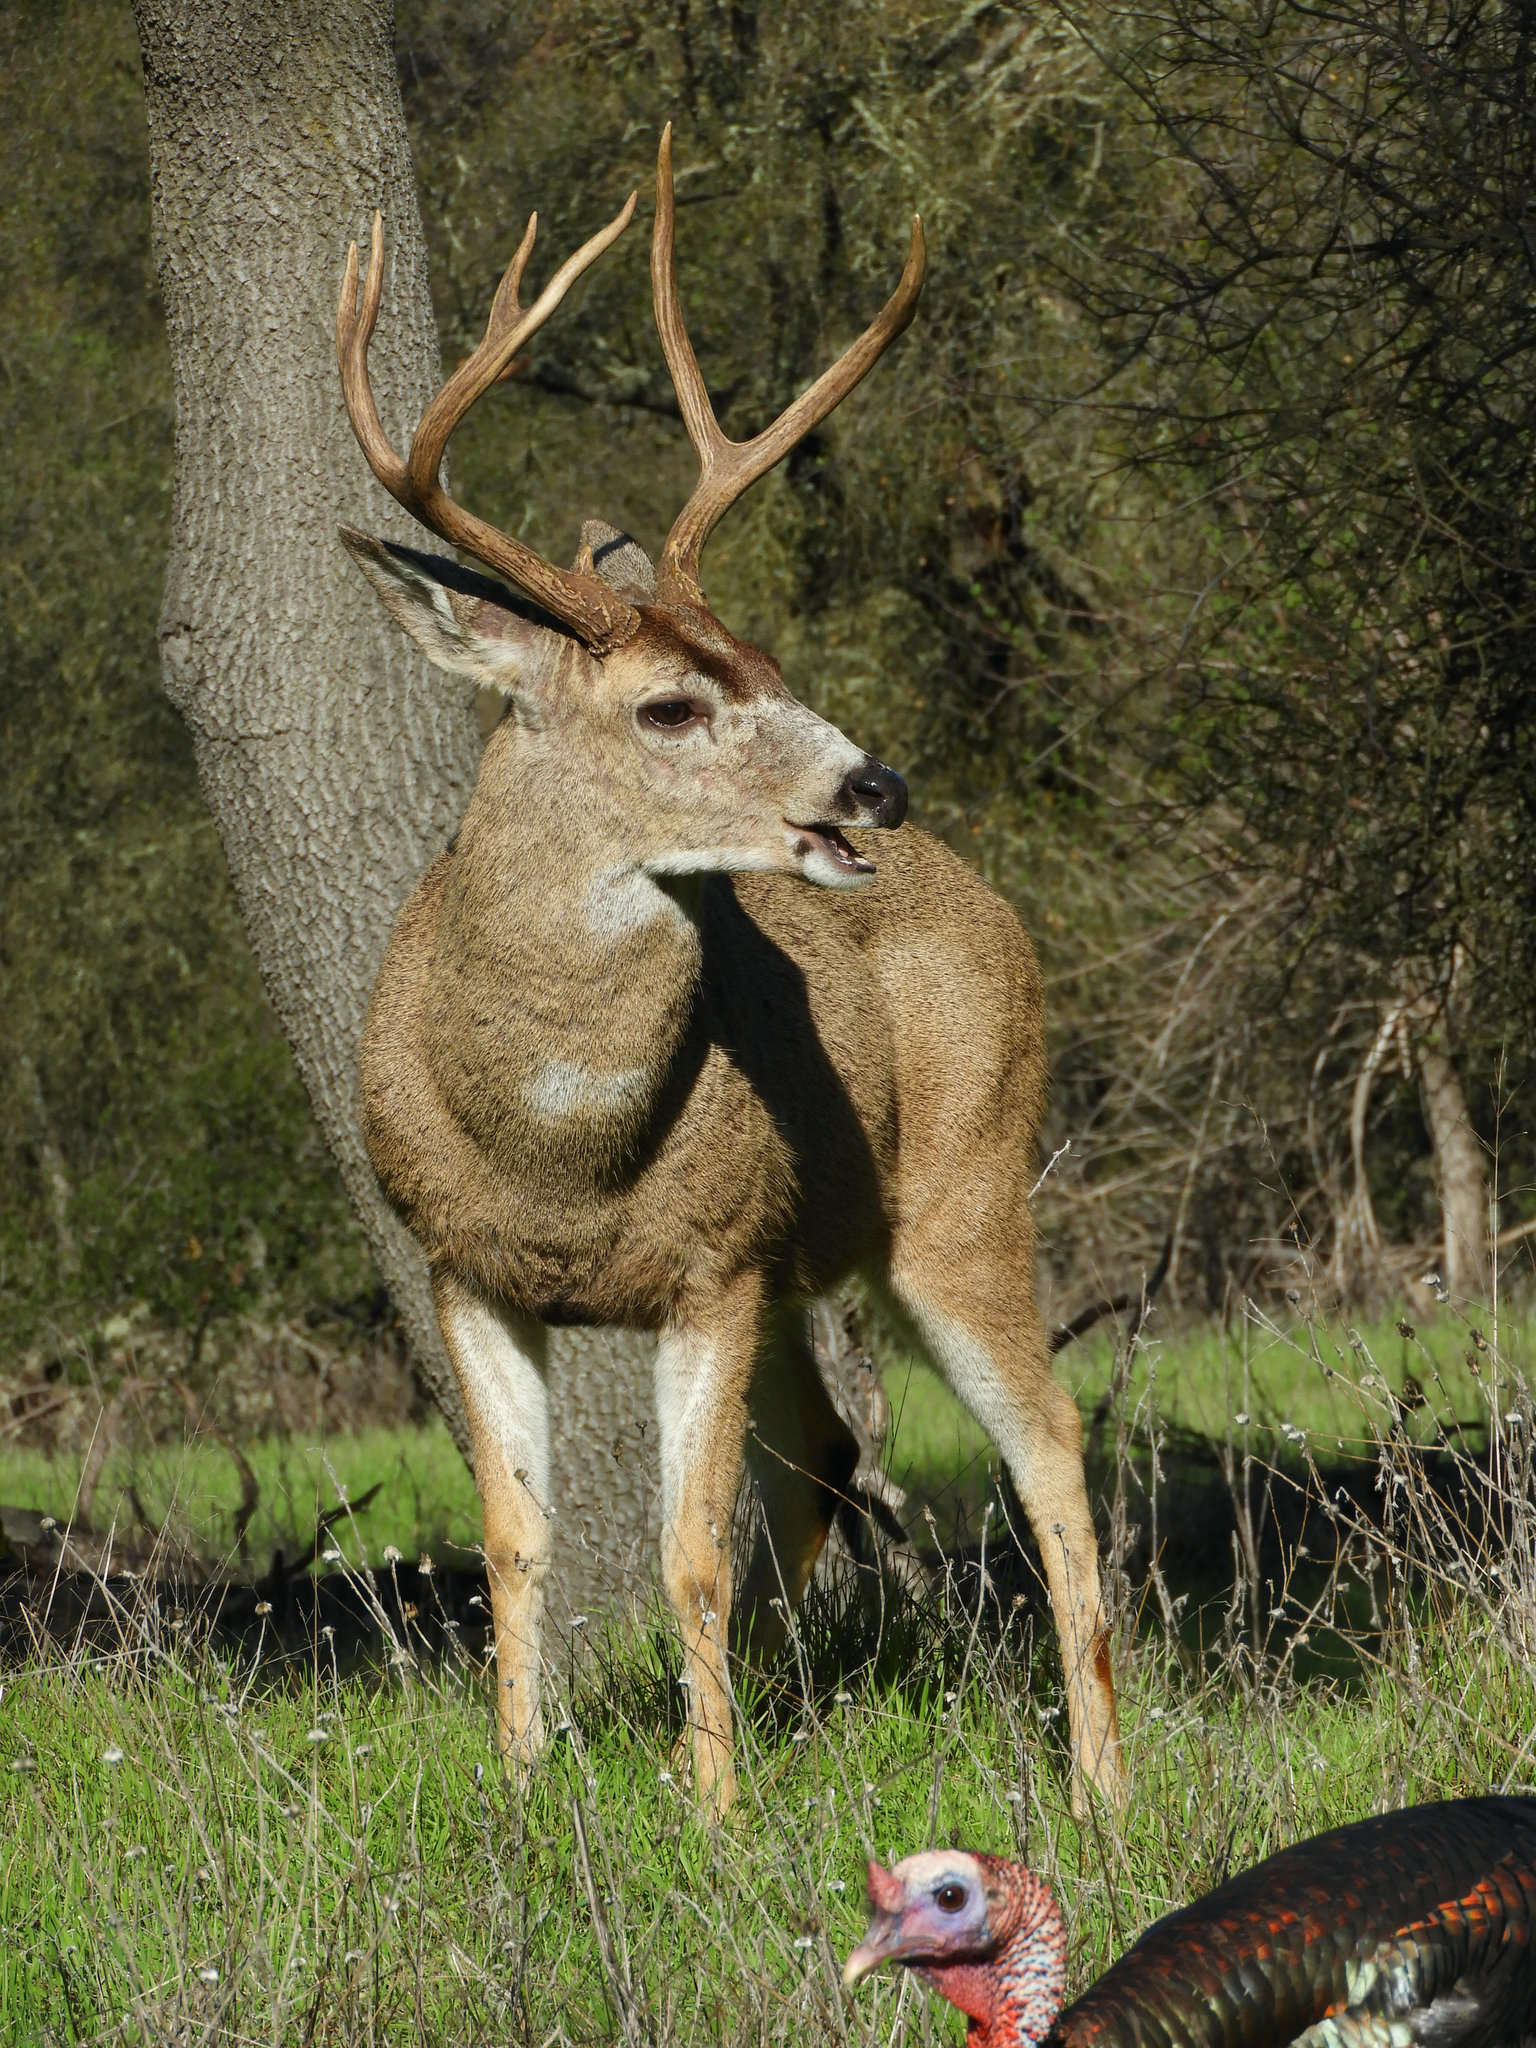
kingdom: Animalia
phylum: Chordata
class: Mammalia
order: Artiodactyla
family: Cervidae
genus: Odocoileus
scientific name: Odocoileus hemionus
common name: Mule deer
